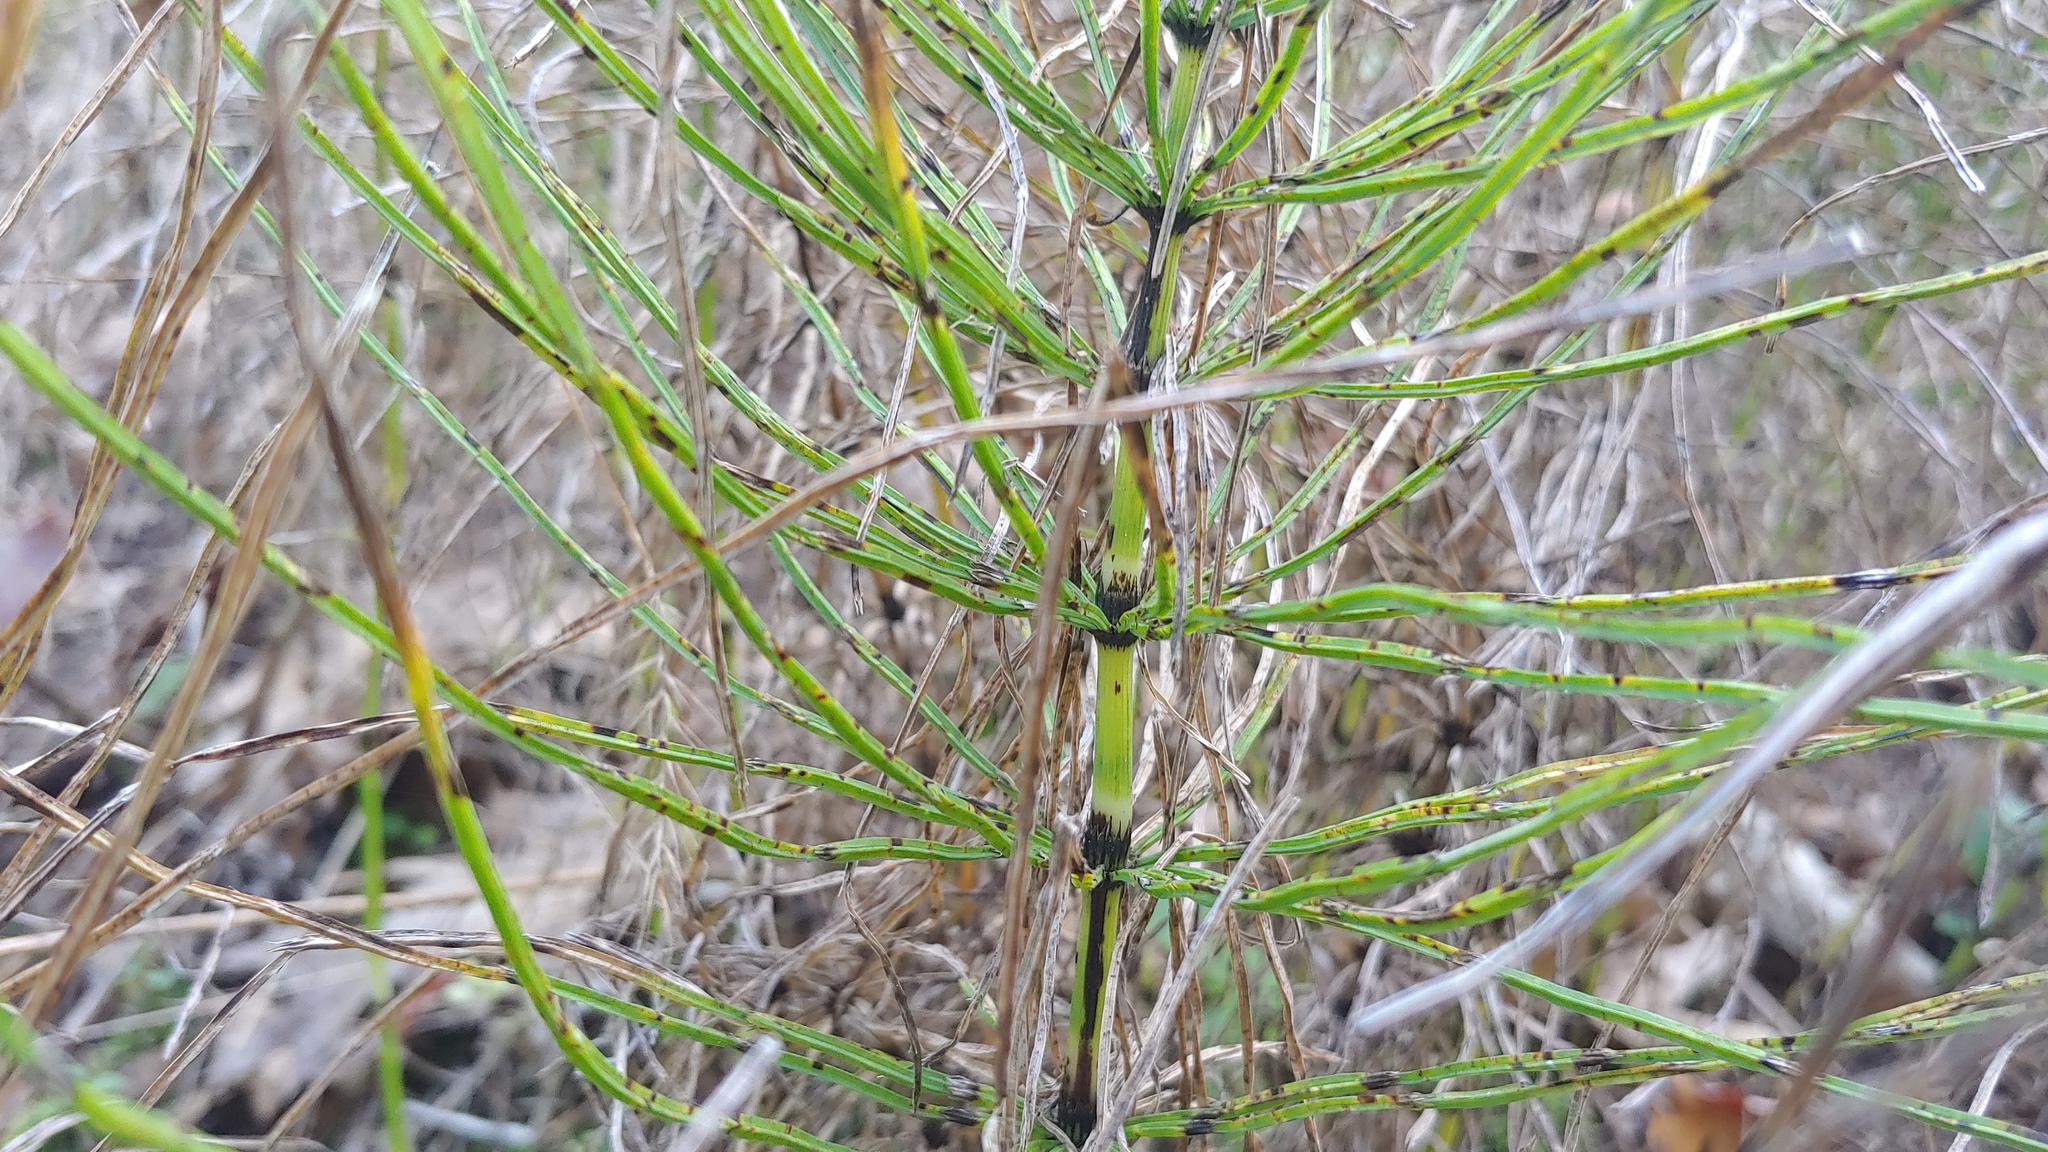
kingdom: Plantae
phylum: Tracheophyta
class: Polypodiopsida
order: Equisetales
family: Equisetaceae
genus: Equisetum
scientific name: Equisetum arvense
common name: Field horsetail
